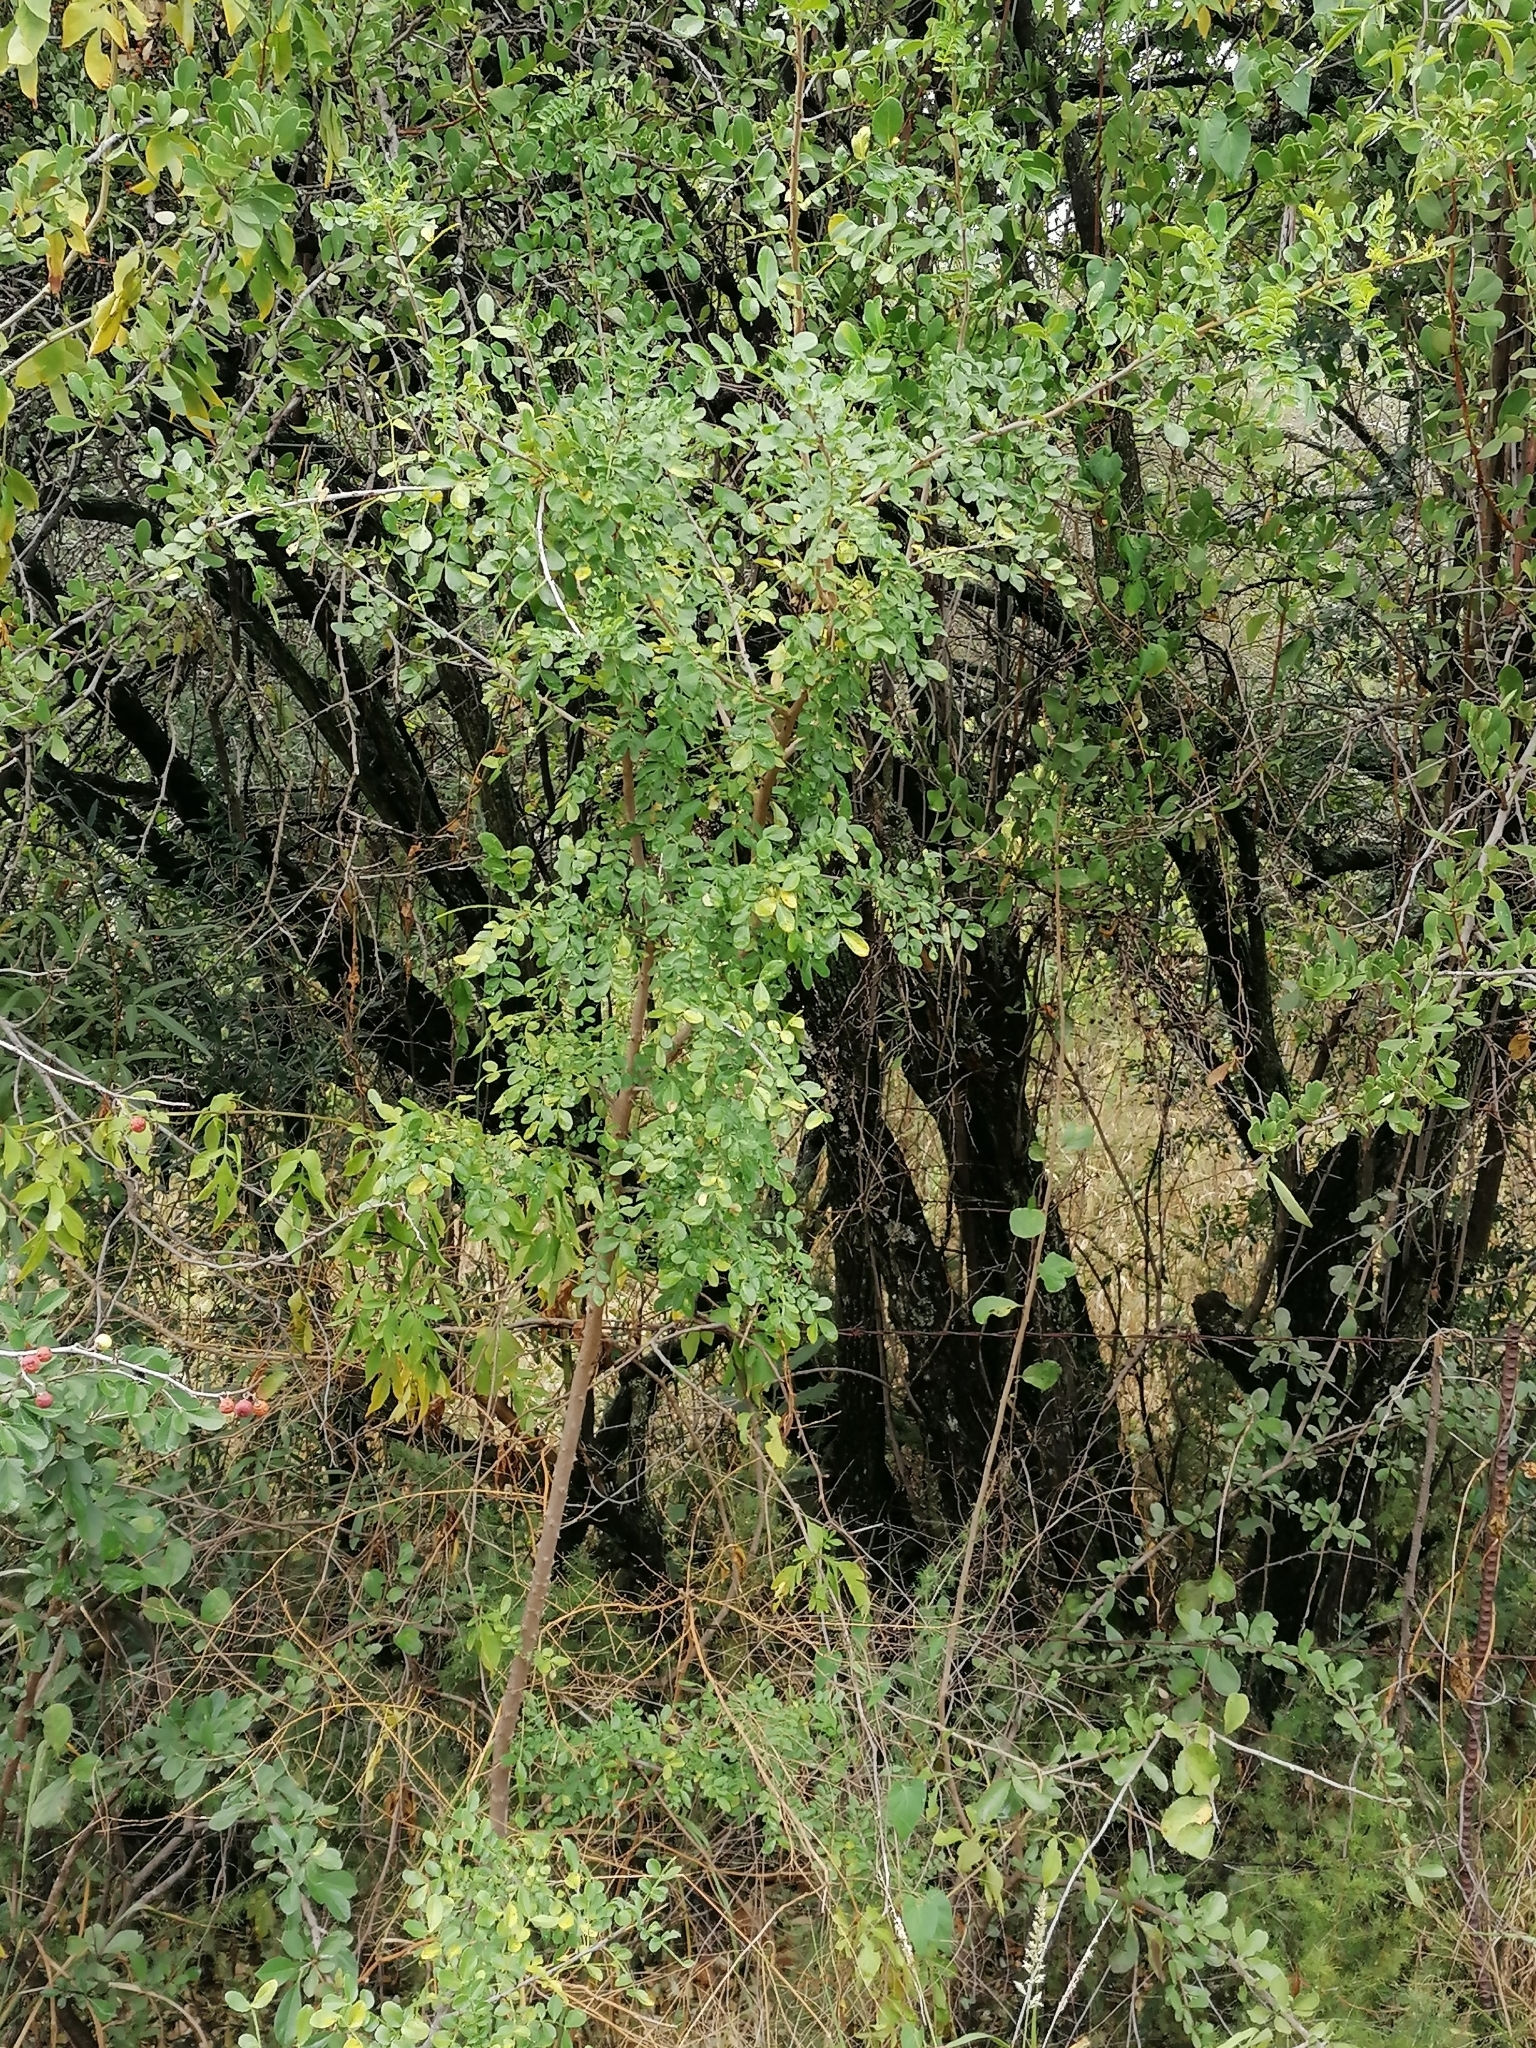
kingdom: Plantae
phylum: Tracheophyta
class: Magnoliopsida
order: Sapindales
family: Rutaceae
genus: Zanthoxylum
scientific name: Zanthoxylum capense
